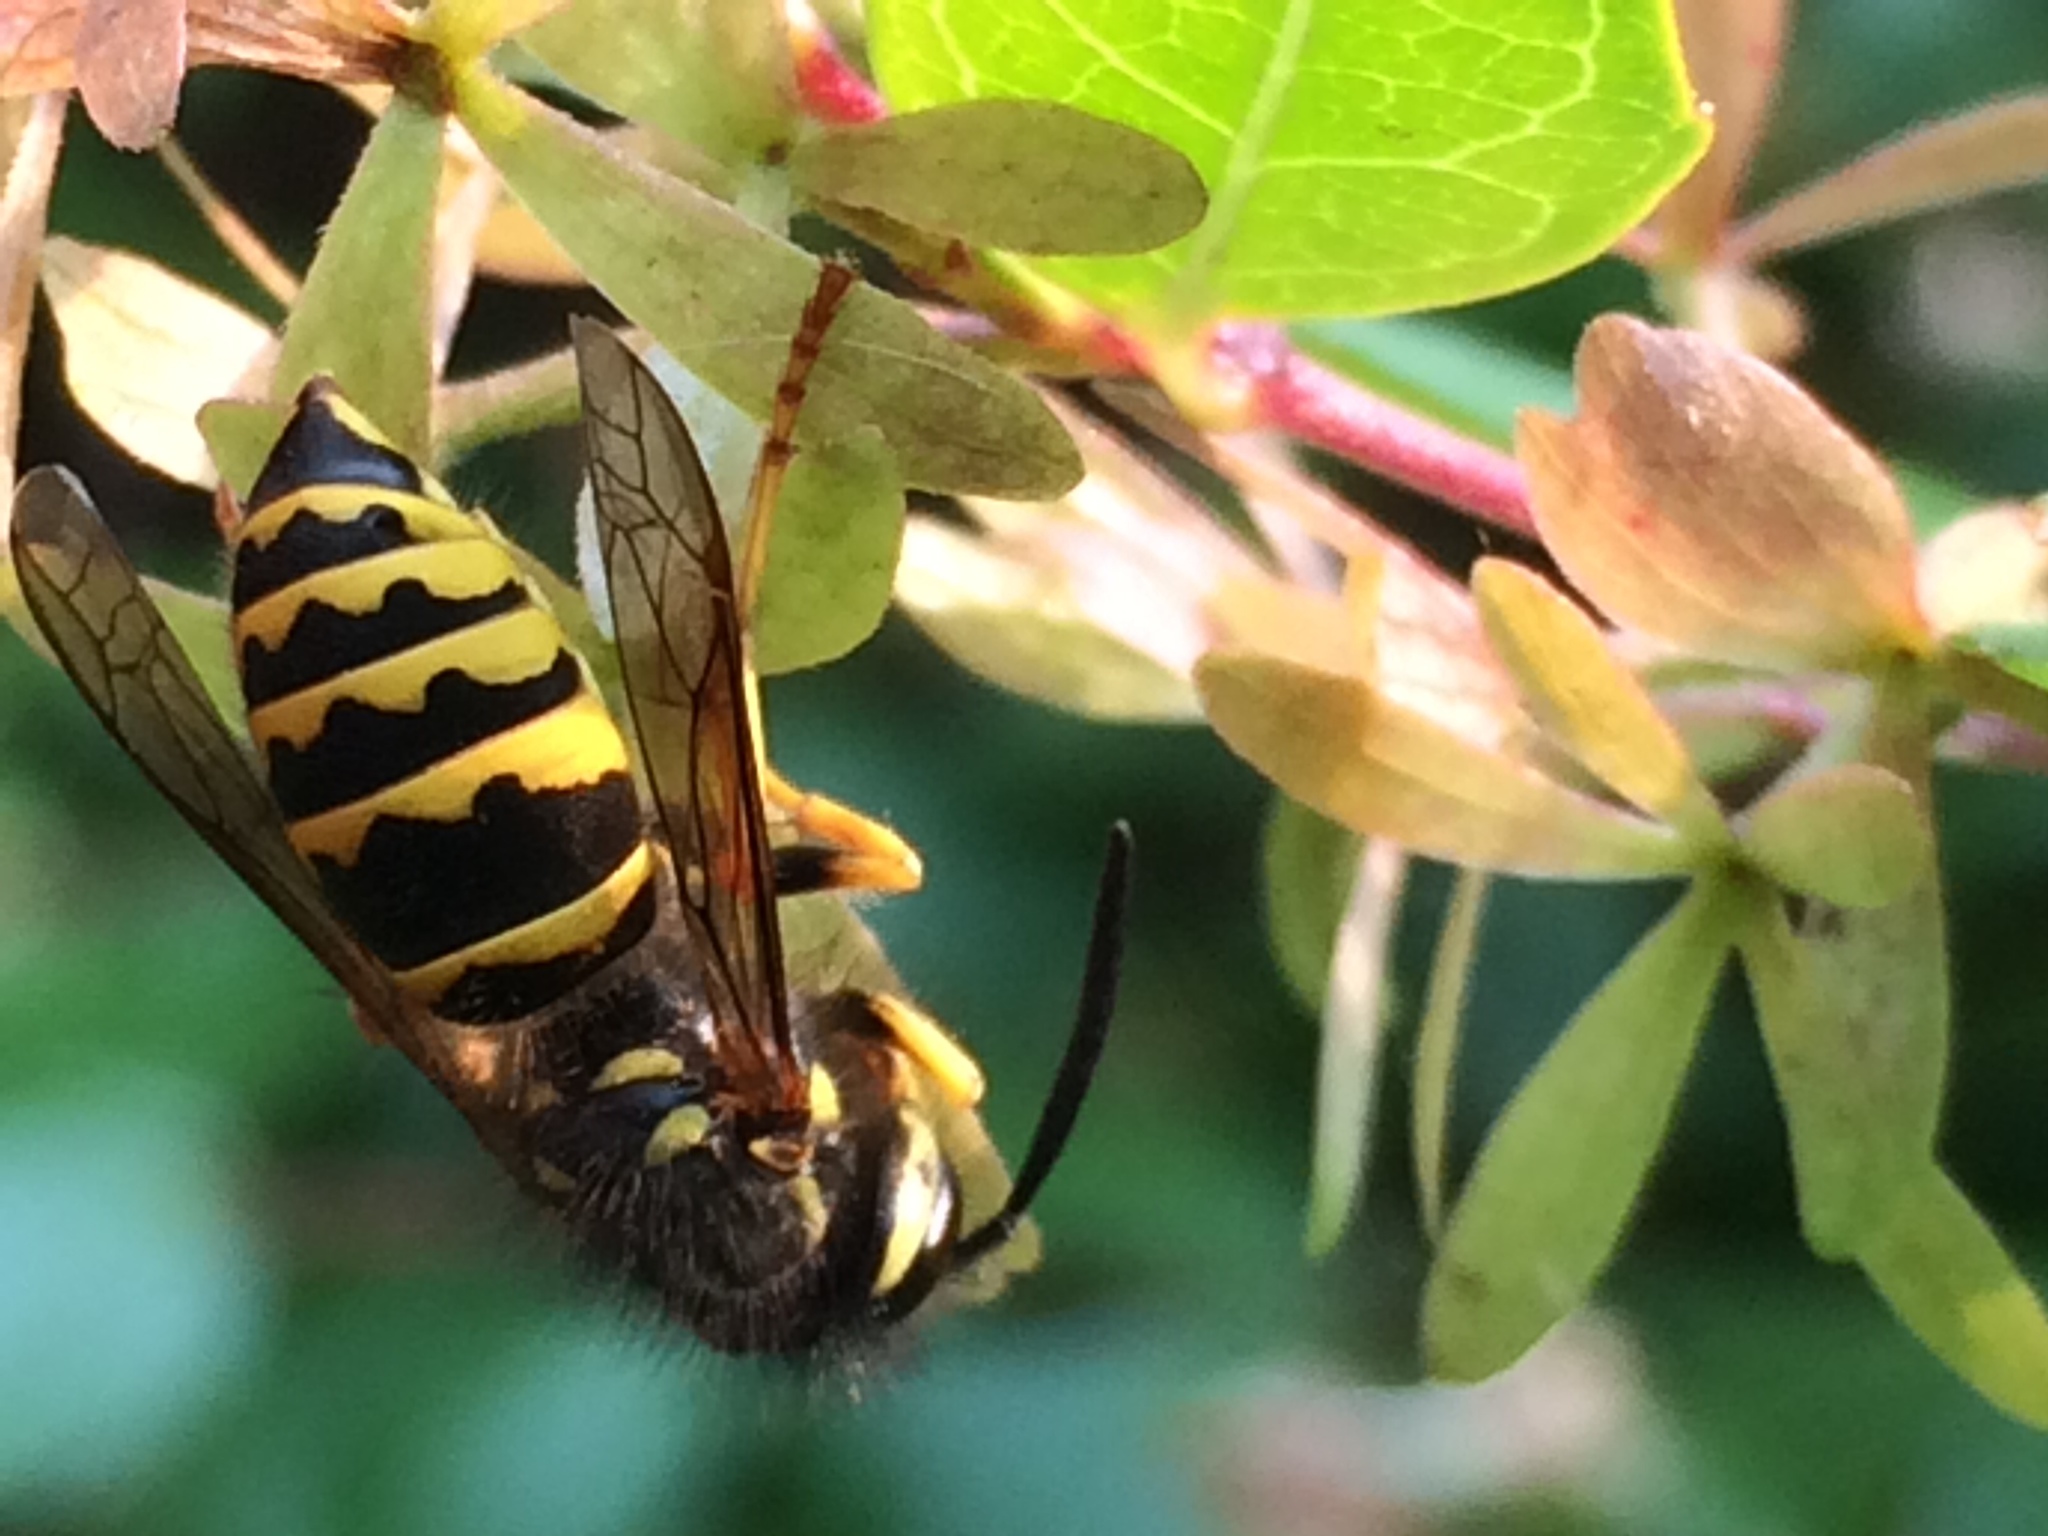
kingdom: Animalia
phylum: Arthropoda
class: Insecta
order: Hymenoptera
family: Vespidae
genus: Vespula
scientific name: Vespula alascensis
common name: Alaska yellowjacket
